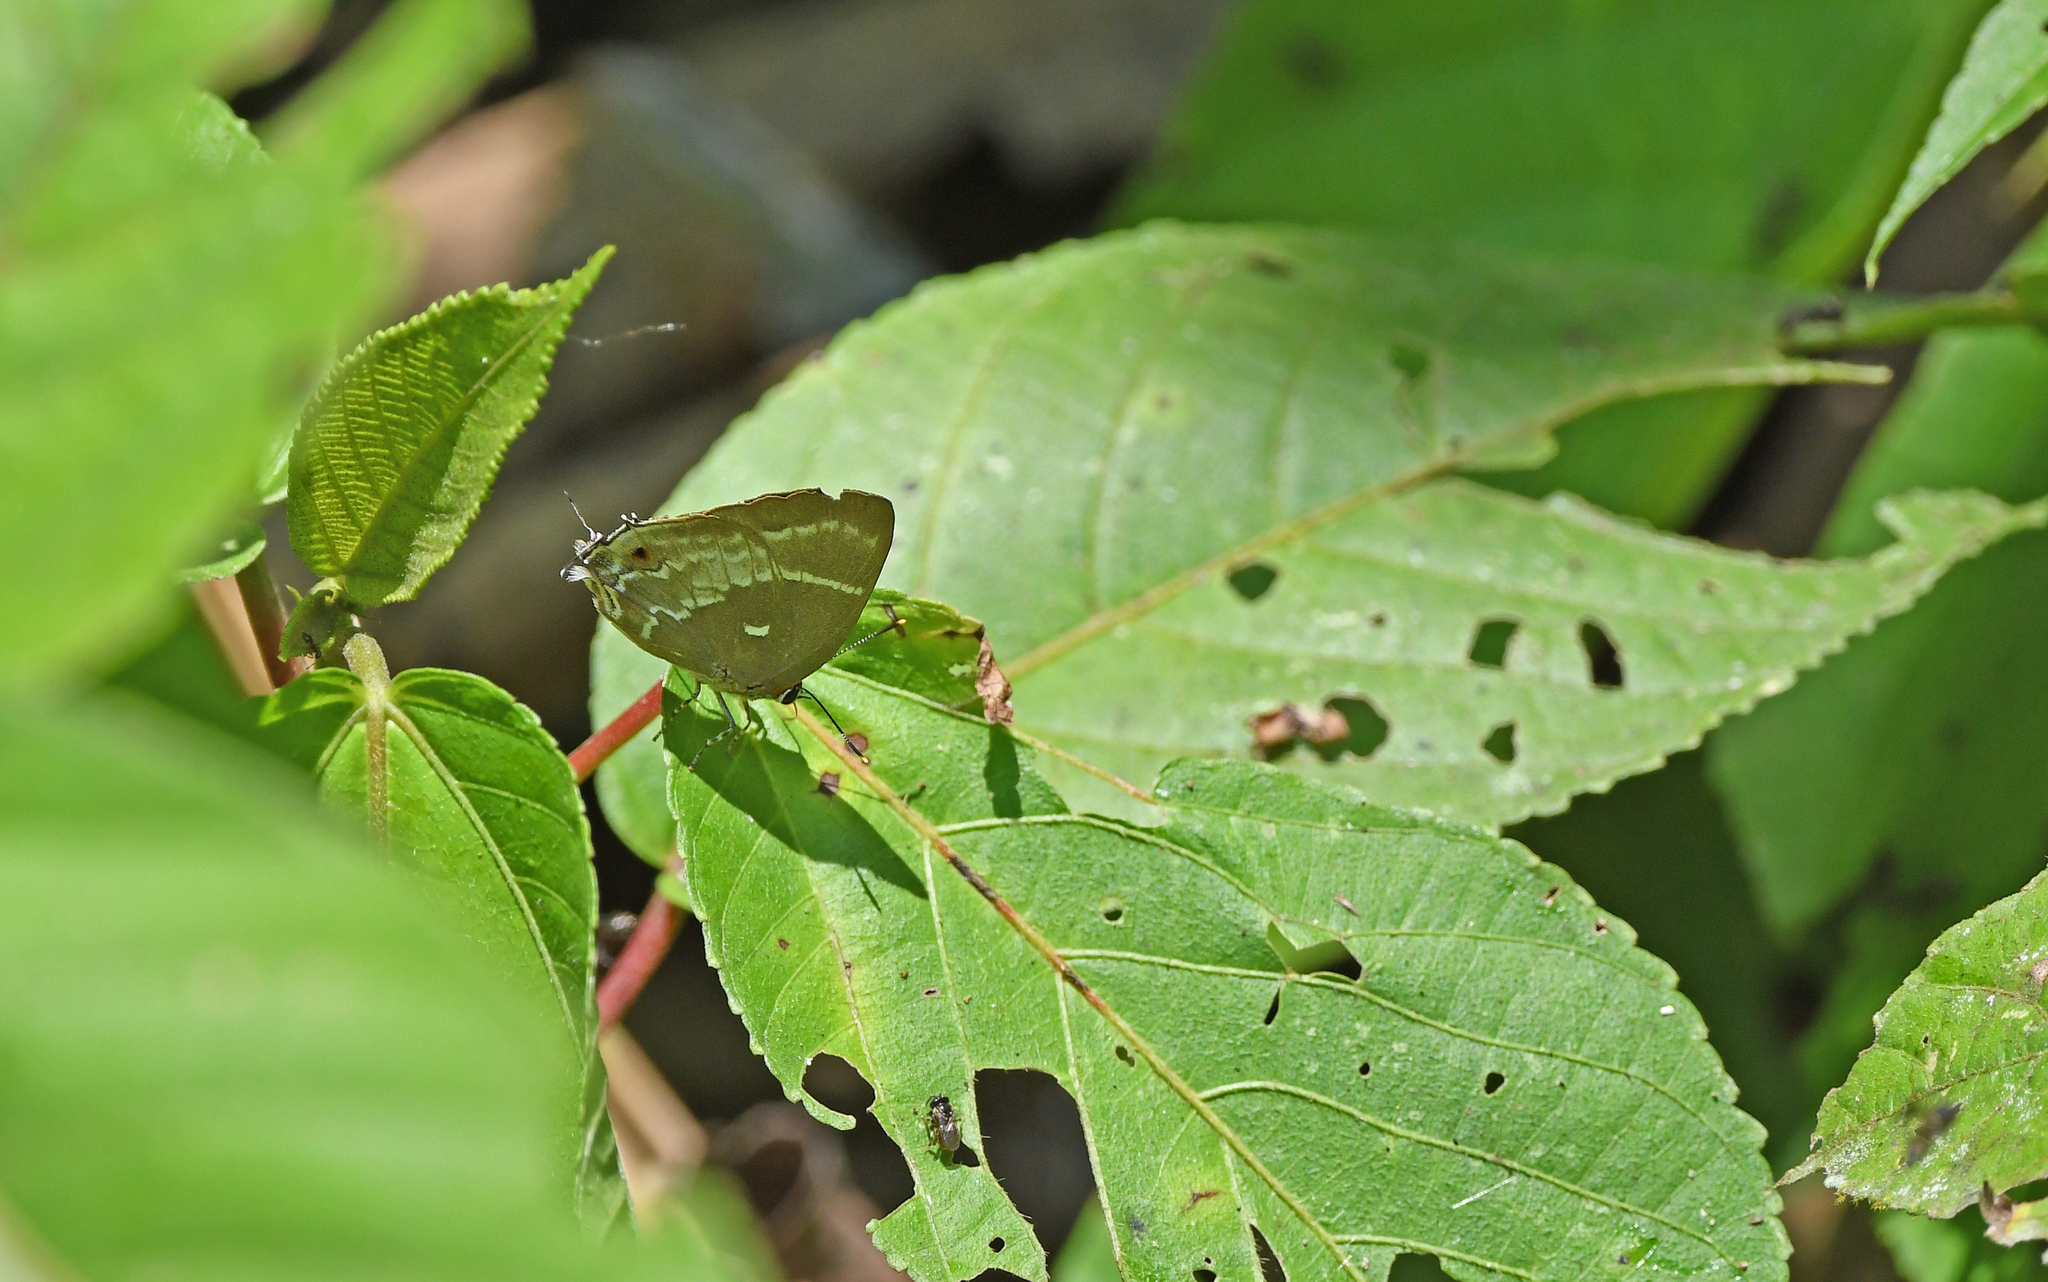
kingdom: Animalia
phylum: Arthropoda
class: Insecta
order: Lepidoptera
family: Lycaenidae
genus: Thecla
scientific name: Thecla phoenissa
